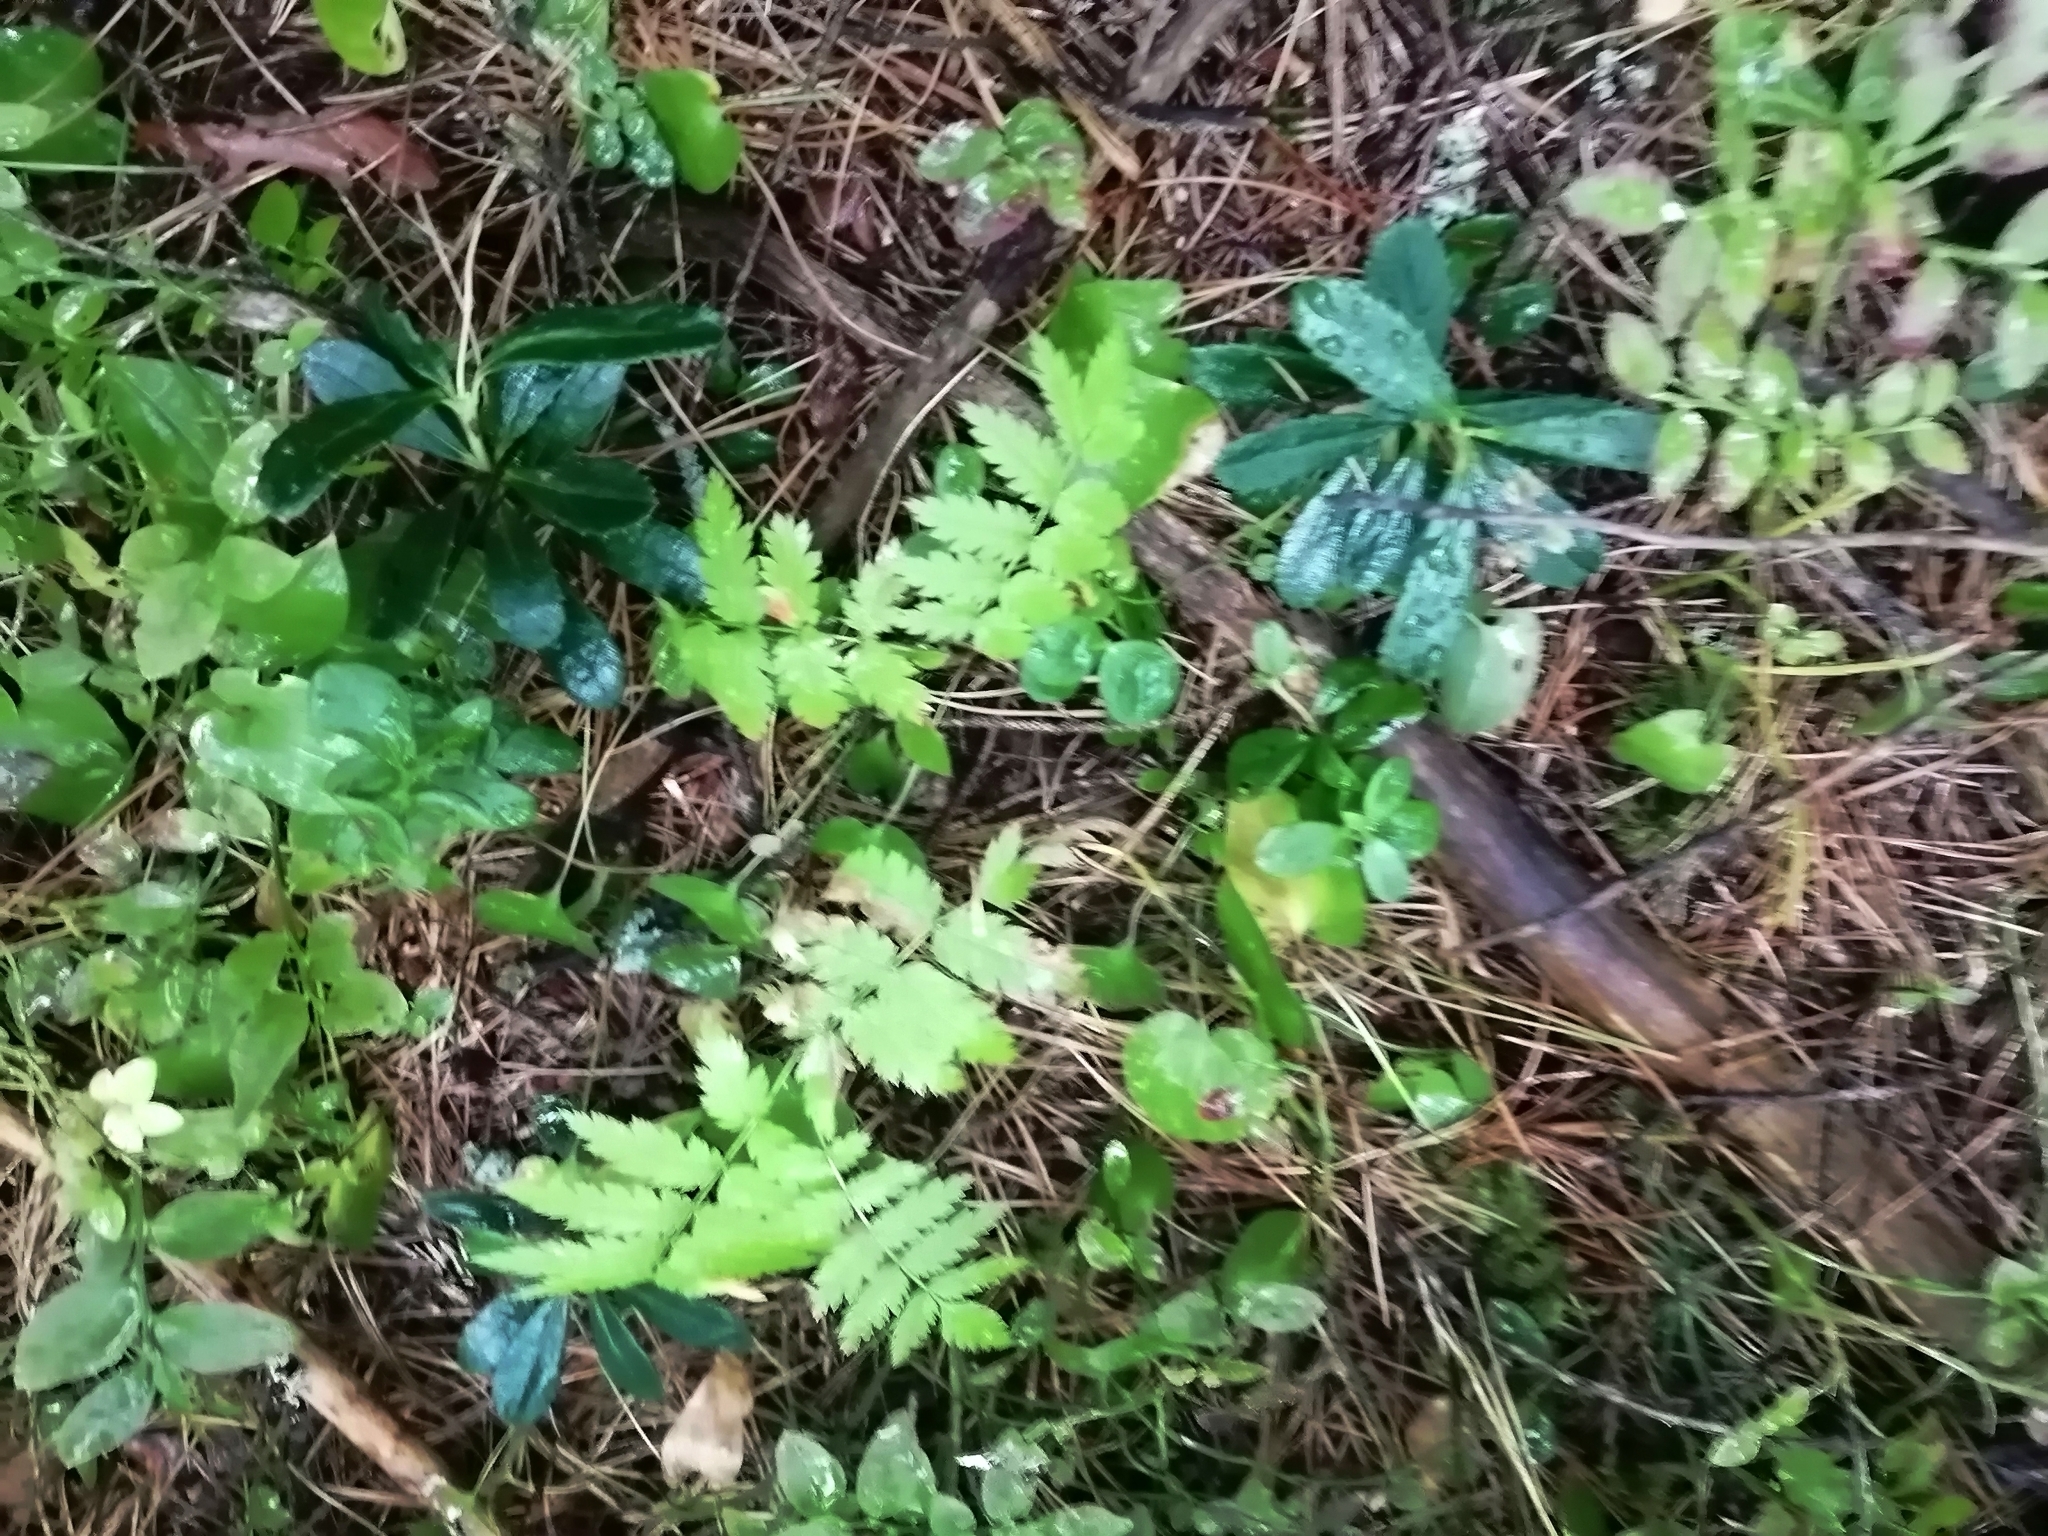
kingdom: Plantae
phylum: Tracheophyta
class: Magnoliopsida
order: Ericales
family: Ericaceae
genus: Chimaphila
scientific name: Chimaphila umbellata
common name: Pipsissewa
